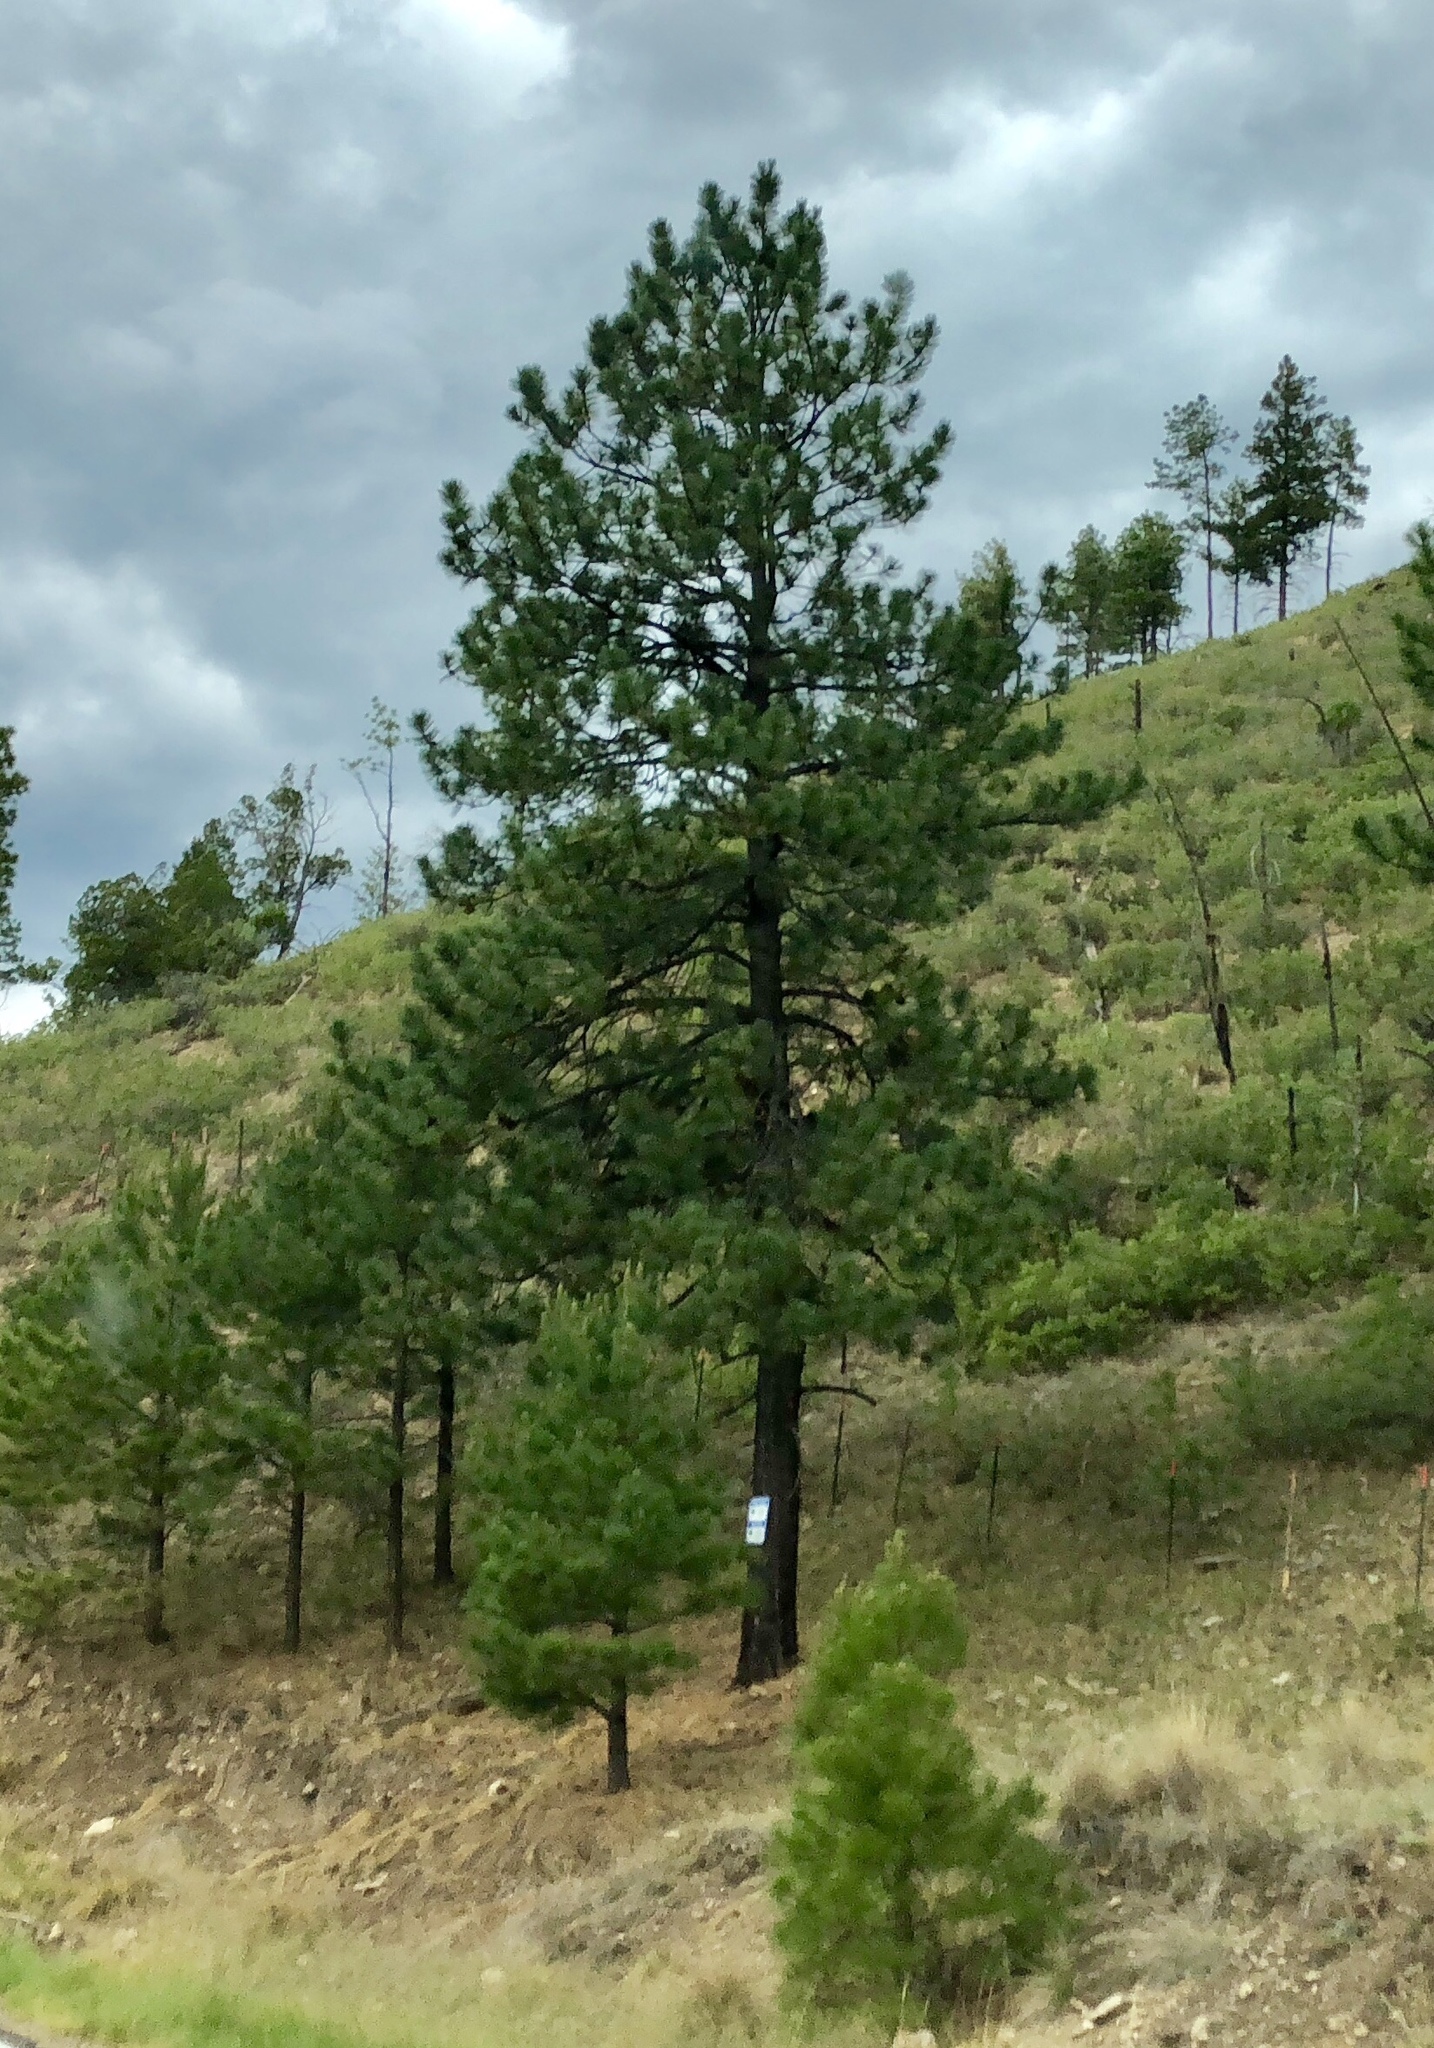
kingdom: Plantae
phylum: Tracheophyta
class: Pinopsida
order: Pinales
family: Pinaceae
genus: Pinus
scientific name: Pinus ponderosa
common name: Western yellow-pine
